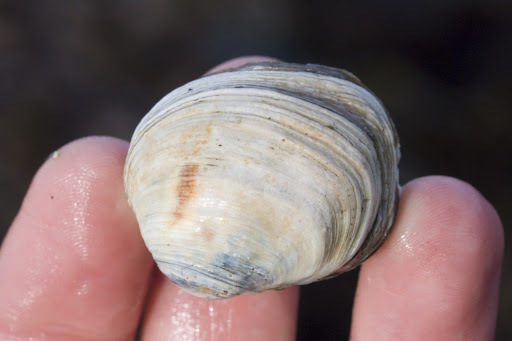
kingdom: Animalia
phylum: Mollusca
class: Bivalvia
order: Venerida
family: Veneridae
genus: Petricola
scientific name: Petricola carditoides
